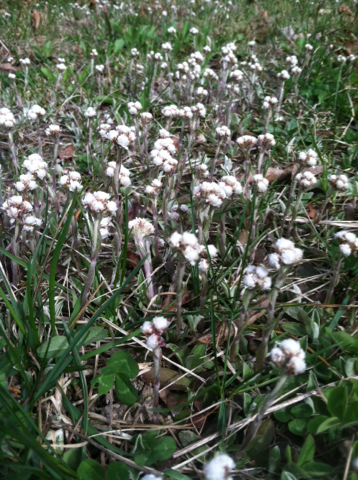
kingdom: Plantae
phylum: Tracheophyta
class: Magnoliopsida
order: Asterales
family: Asteraceae
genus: Antennaria
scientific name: Antennaria plantaginifolia
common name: Plantain-leaved pussytoes
